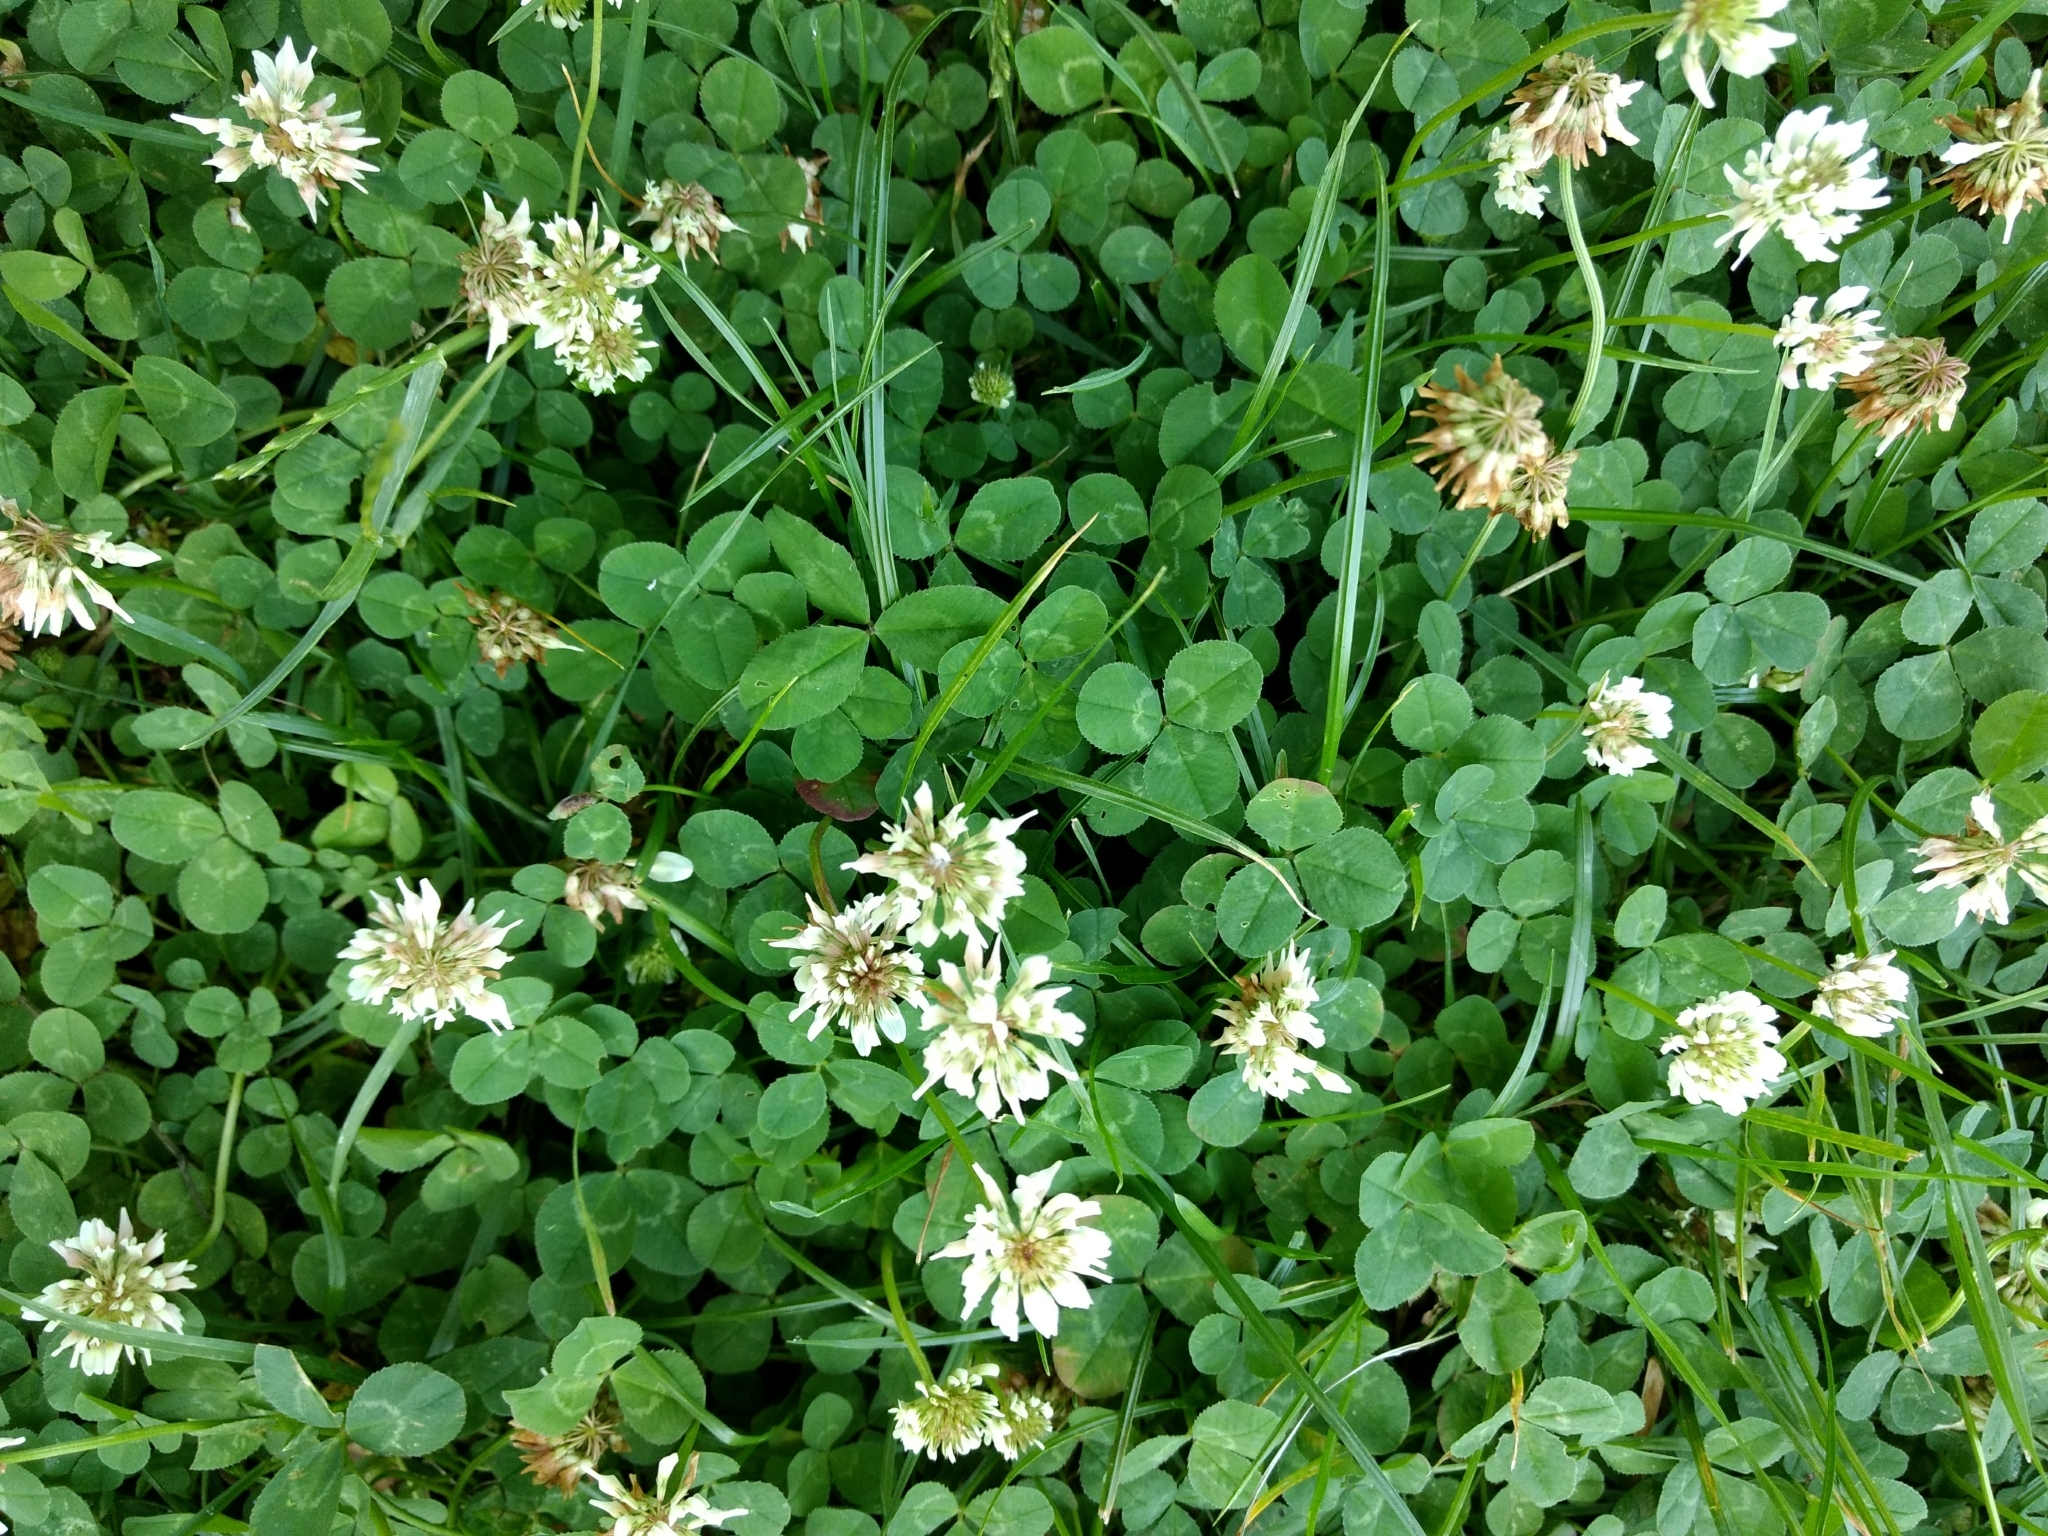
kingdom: Plantae
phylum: Tracheophyta
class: Magnoliopsida
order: Fabales
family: Fabaceae
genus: Trifolium
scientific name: Trifolium repens
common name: White clover
